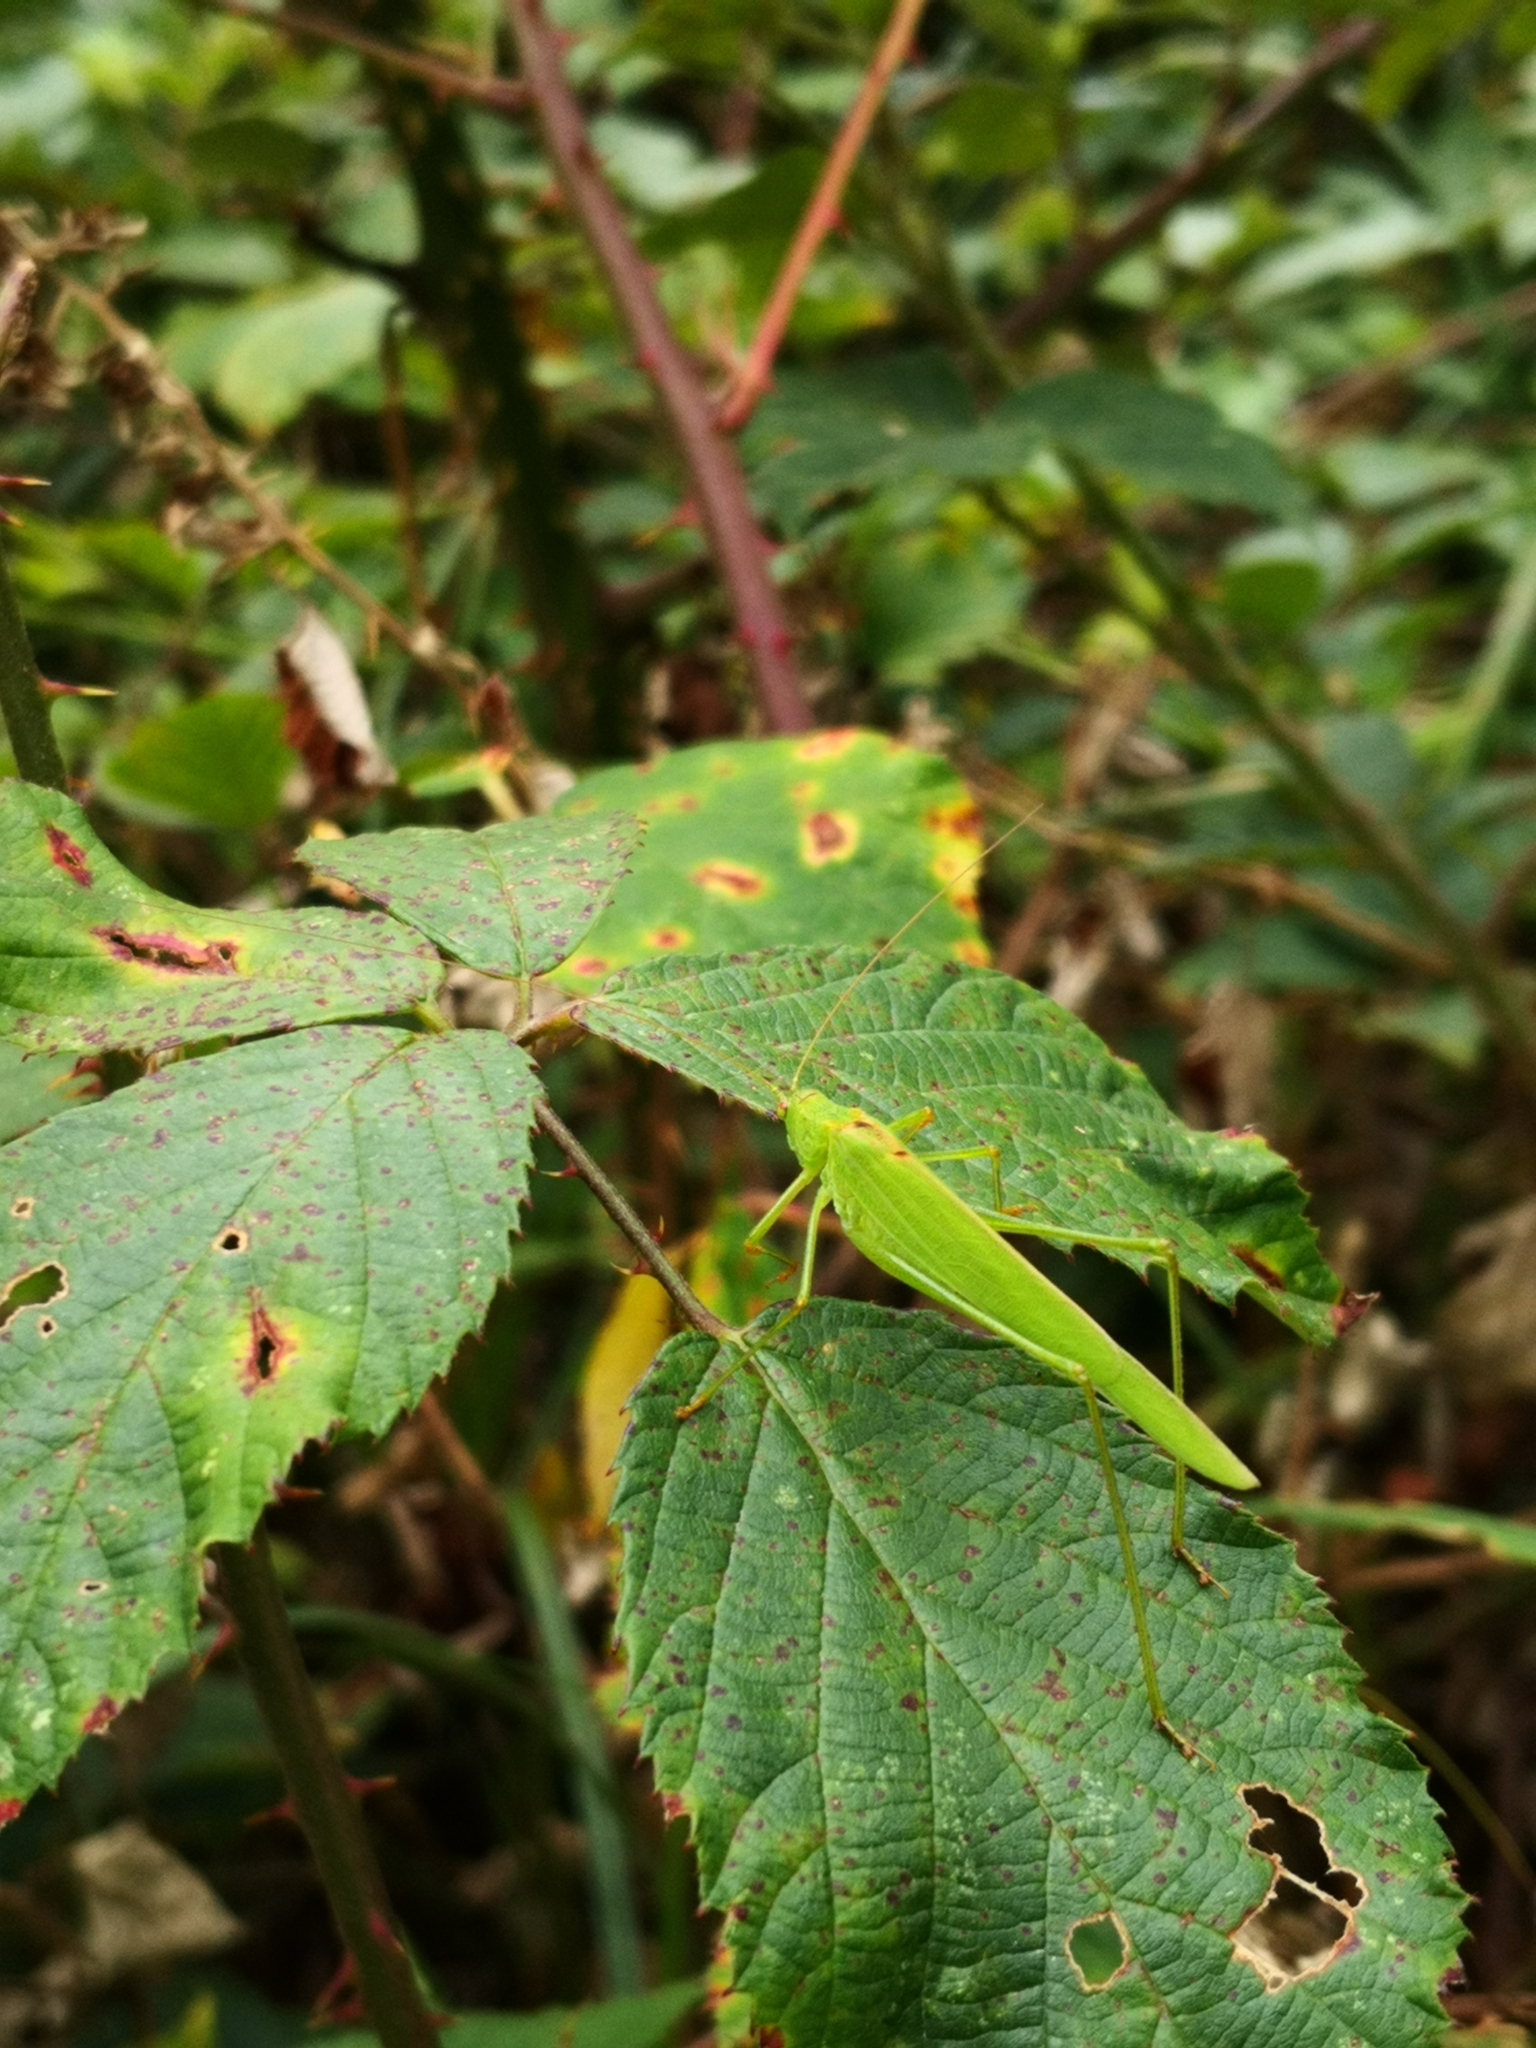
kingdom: Animalia
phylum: Arthropoda
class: Insecta
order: Orthoptera
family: Tettigoniidae
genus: Phaneroptera
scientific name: Phaneroptera falcata
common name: Sickle-bearing bush-cricket
